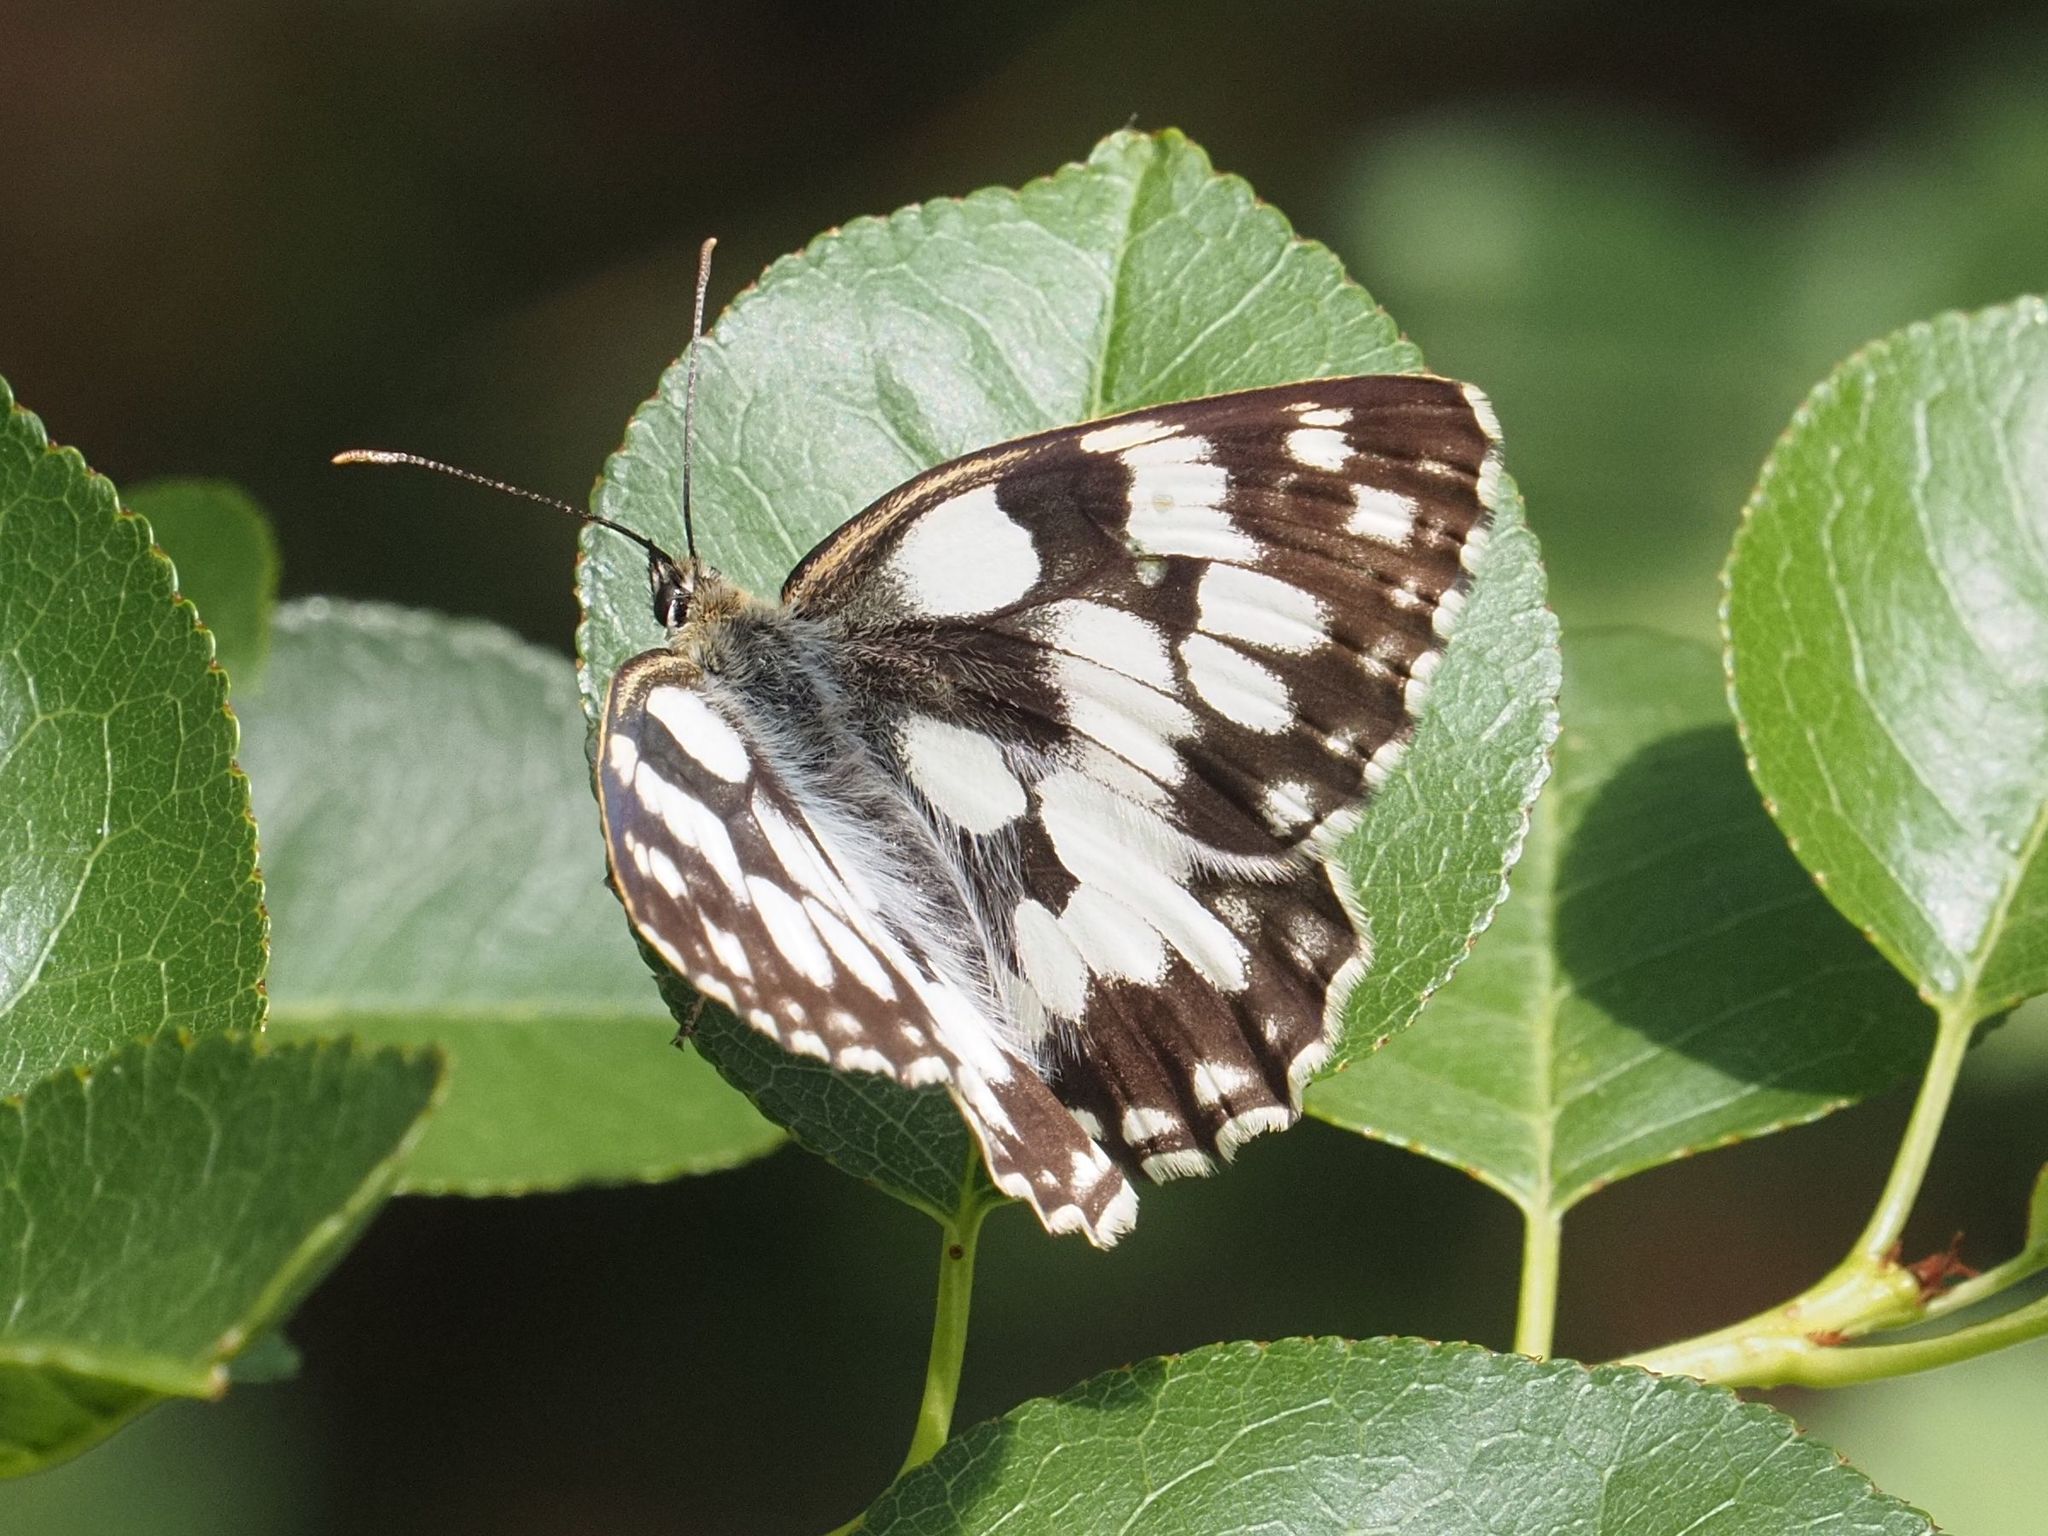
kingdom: Animalia
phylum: Arthropoda
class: Insecta
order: Lepidoptera
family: Nymphalidae
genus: Melanargia
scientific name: Melanargia galathea
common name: Marbled white
